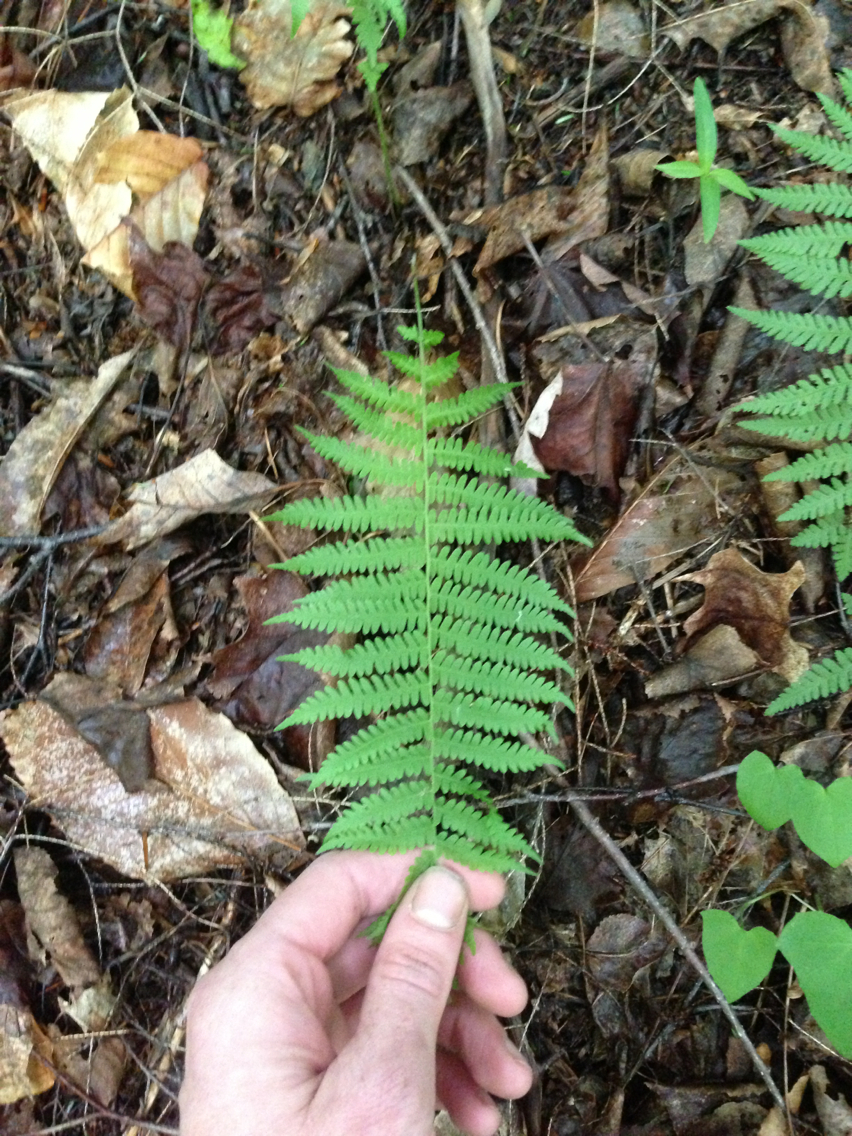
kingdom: Plantae
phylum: Tracheophyta
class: Polypodiopsida
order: Polypodiales
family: Thelypteridaceae
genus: Amauropelta
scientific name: Amauropelta noveboracensis
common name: New york fern
